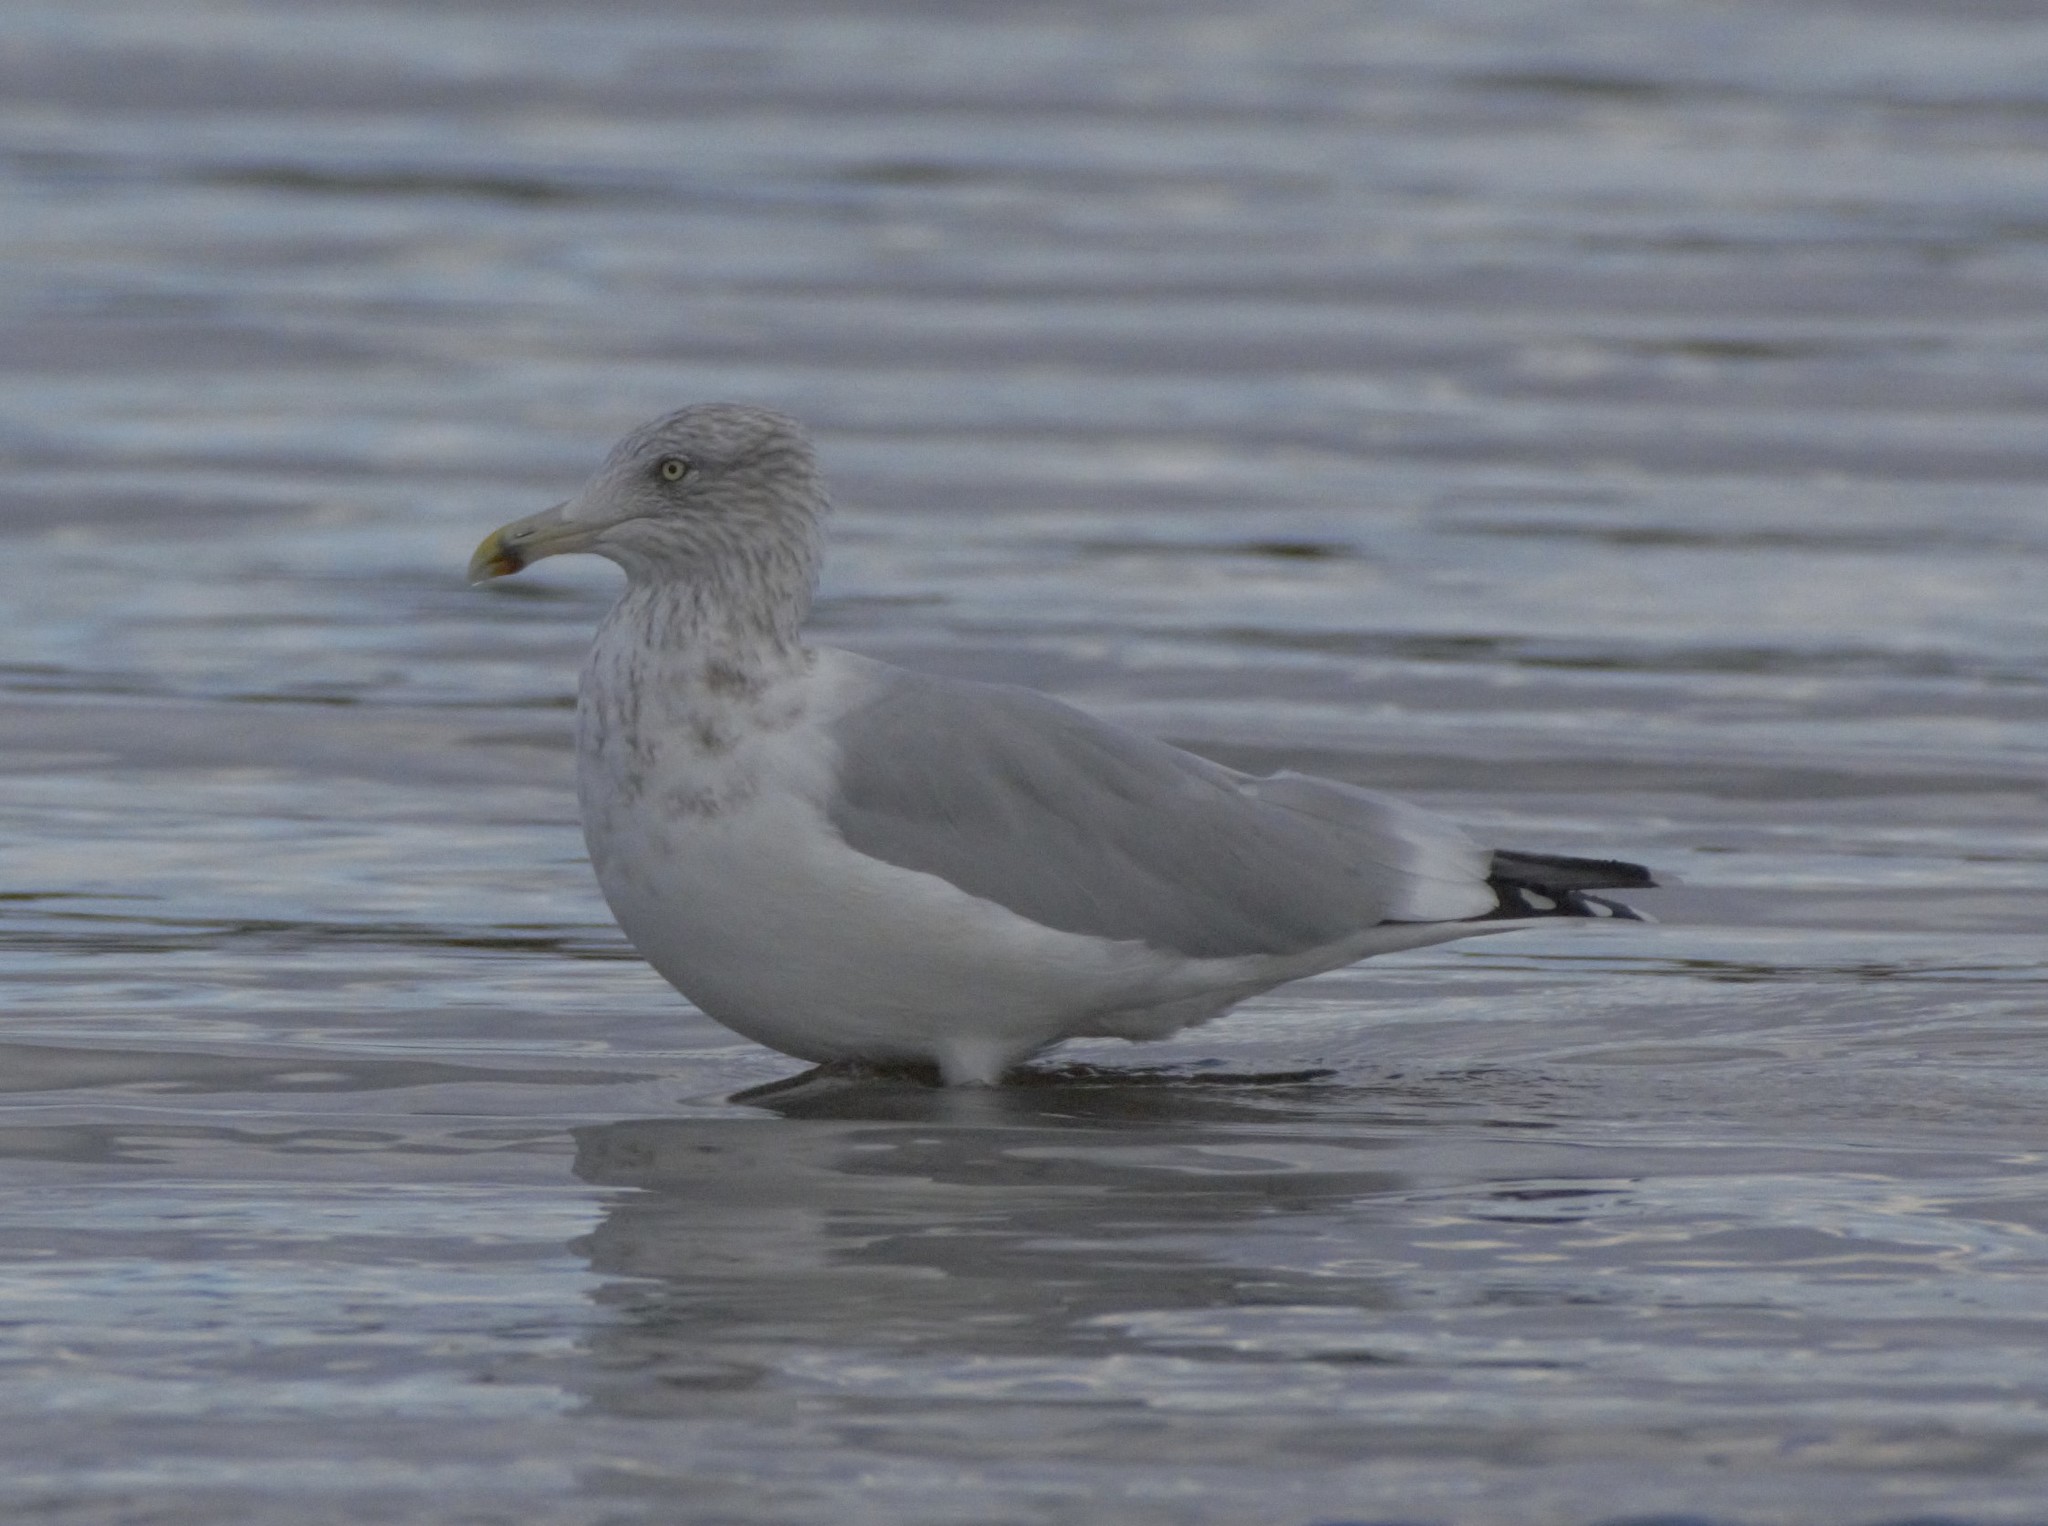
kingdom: Animalia
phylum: Chordata
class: Aves
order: Charadriiformes
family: Laridae
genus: Larus
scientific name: Larus argentatus
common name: Herring gull
